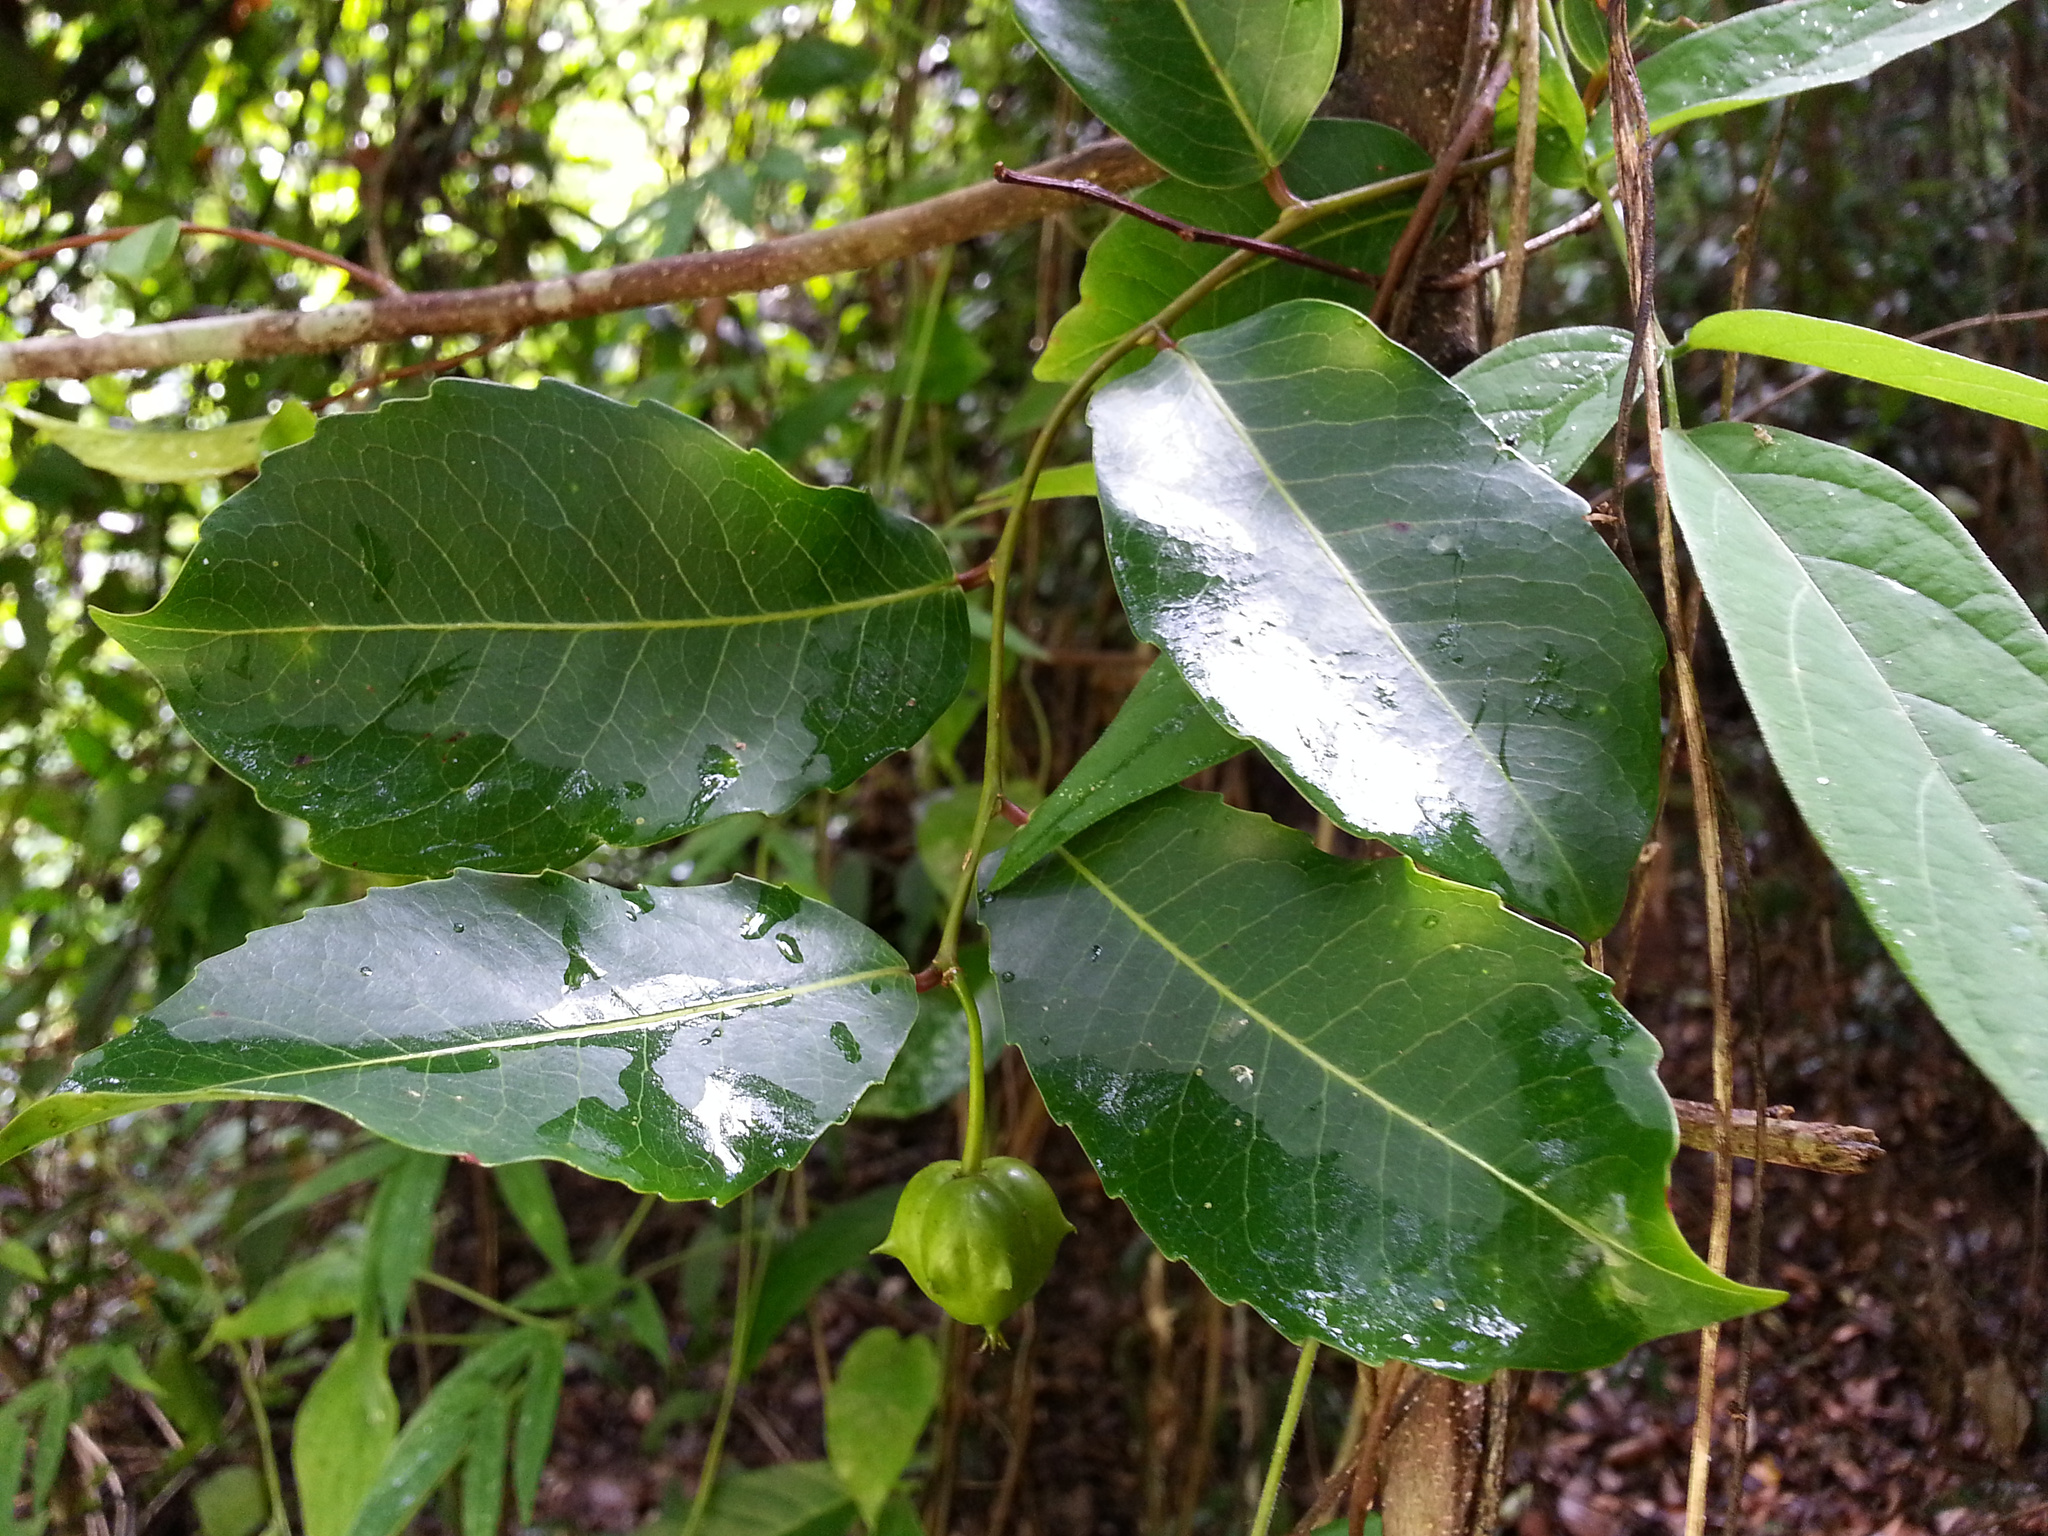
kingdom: Plantae
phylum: Tracheophyta
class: Magnoliopsida
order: Malpighiales
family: Euphorbiaceae
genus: Sclerocroton
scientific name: Sclerocroton melanostictus
